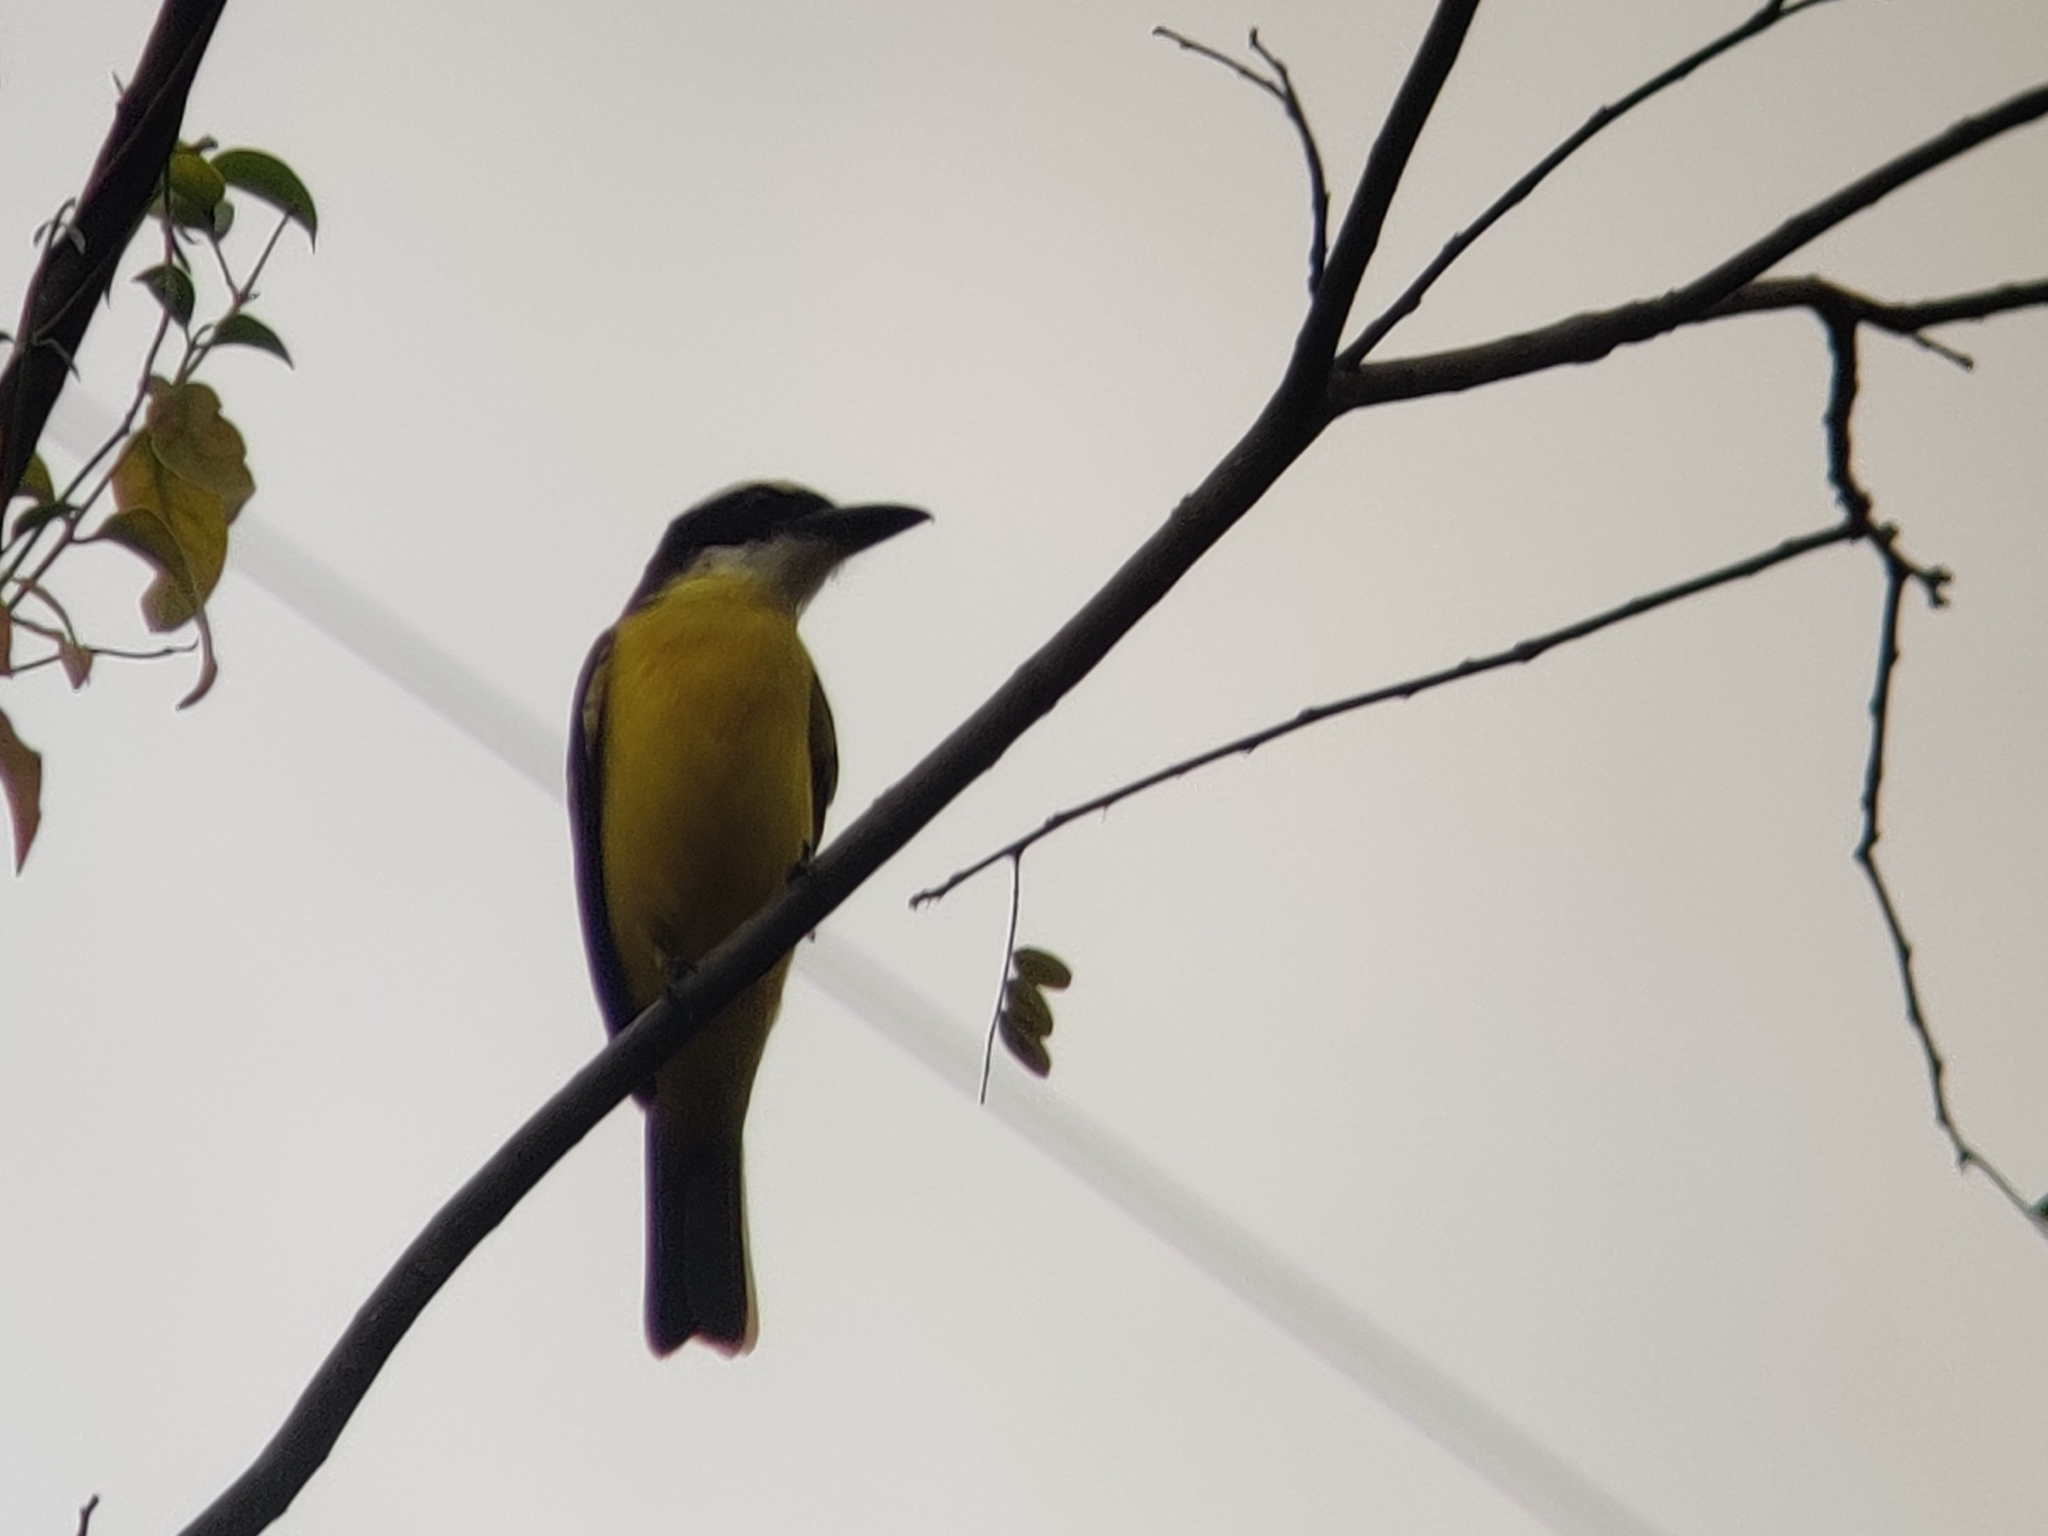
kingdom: Animalia
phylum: Chordata
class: Aves
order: Passeriformes
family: Tyrannidae
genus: Megarynchus
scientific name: Megarynchus pitangua
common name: Boat-billed flycatcher
